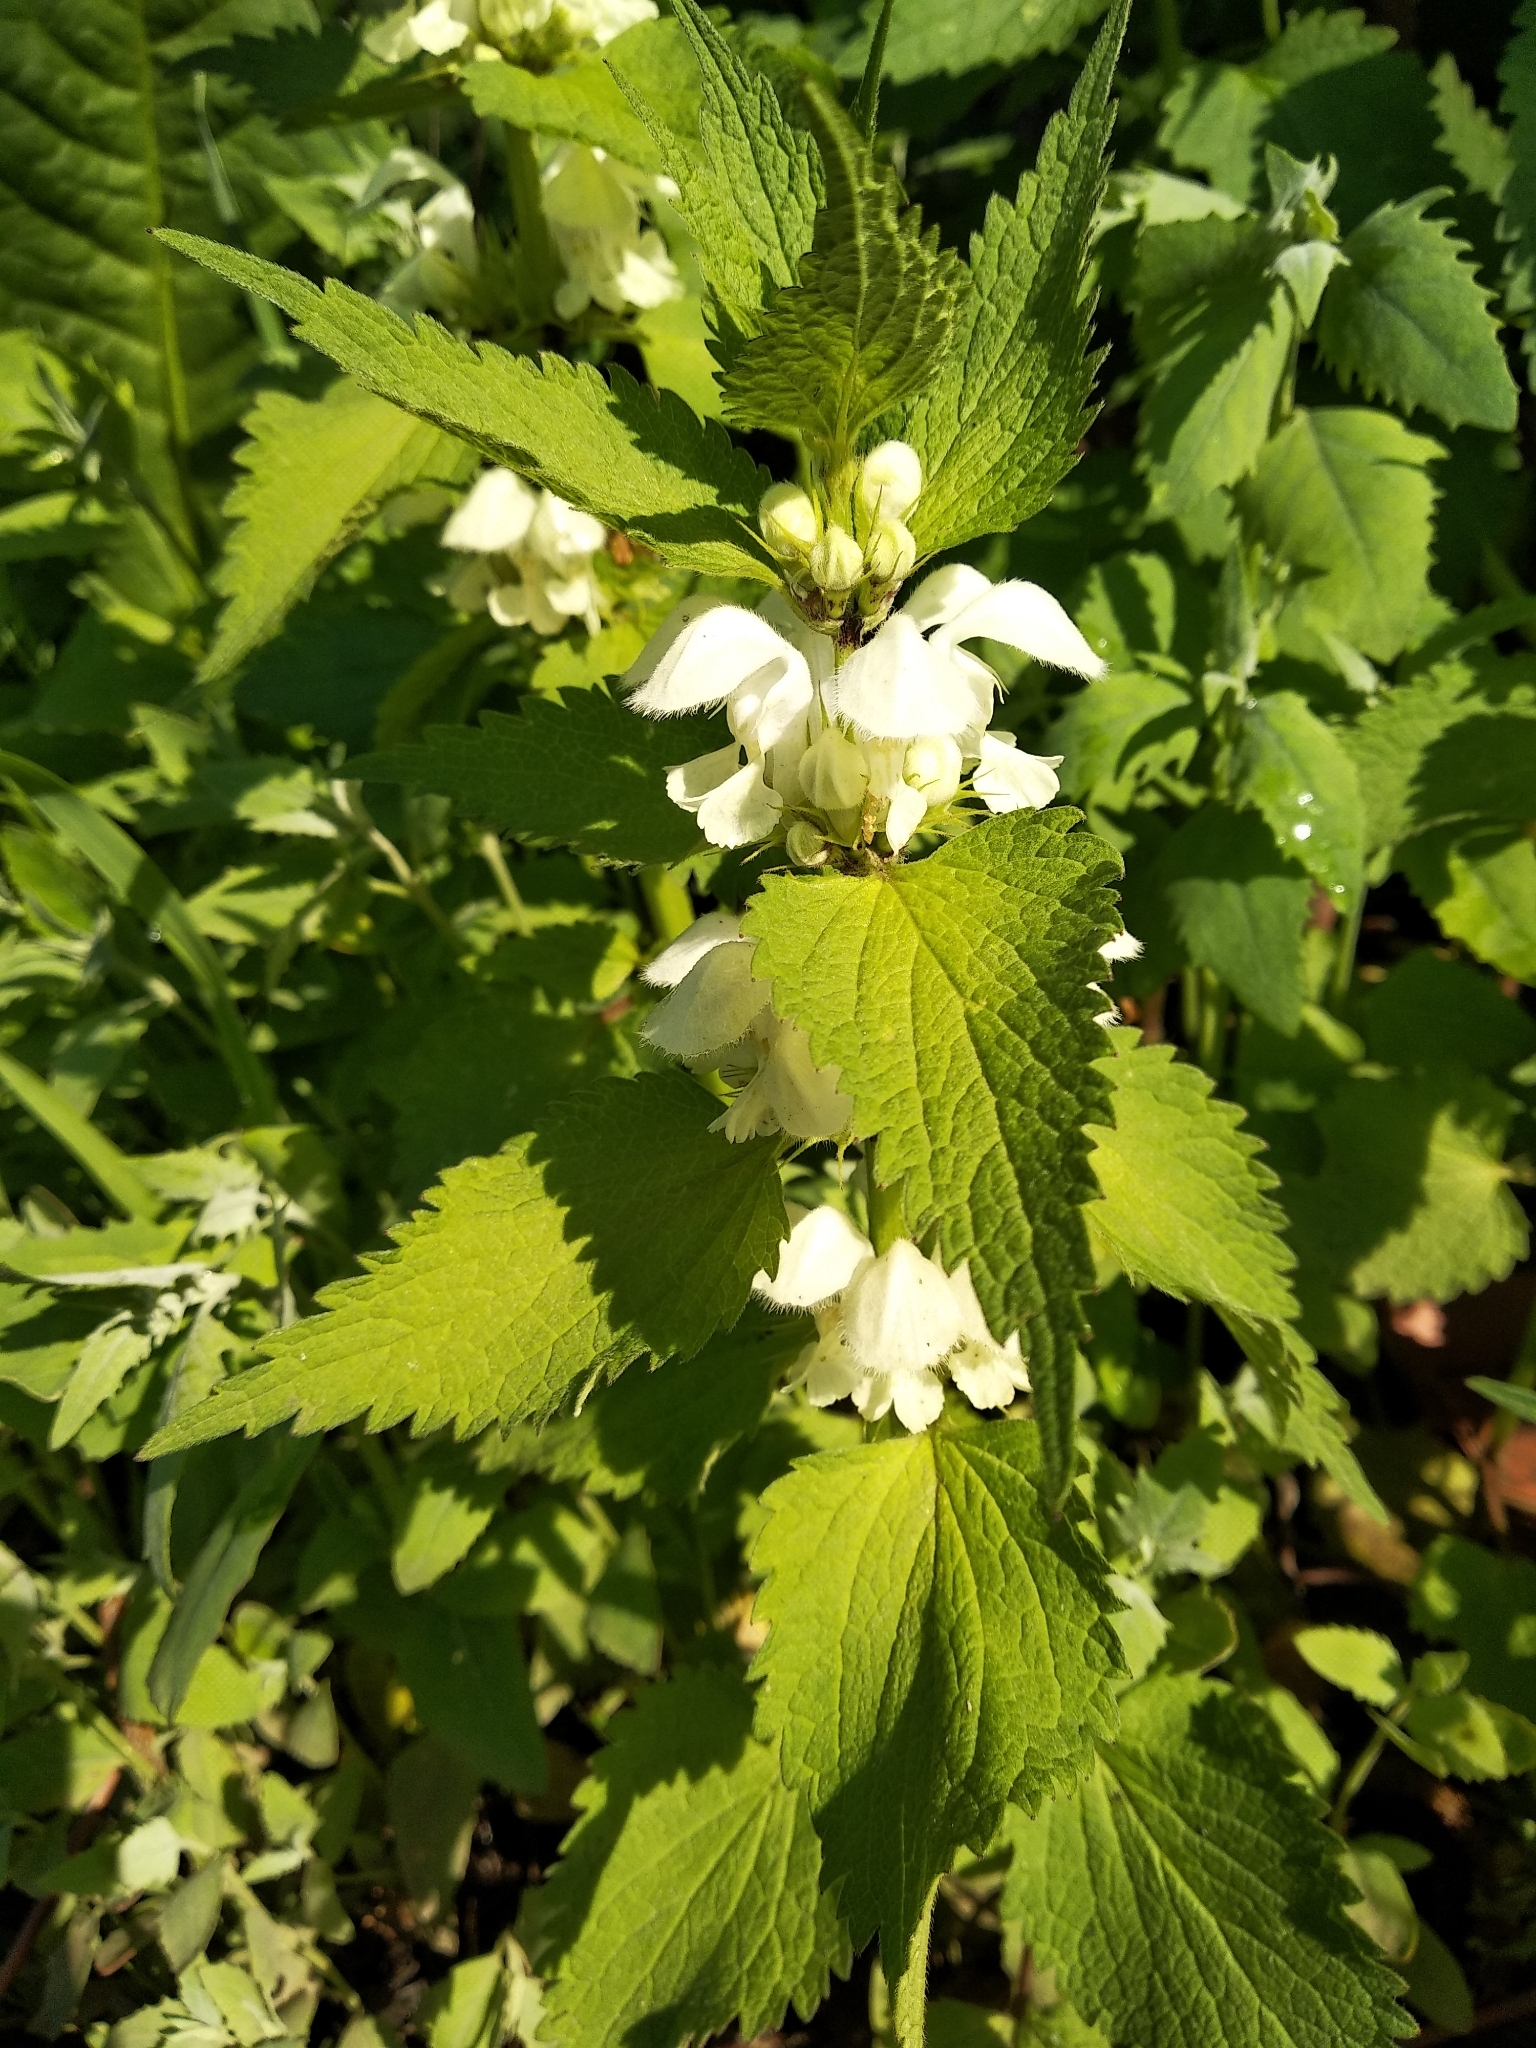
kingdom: Plantae
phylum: Tracheophyta
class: Magnoliopsida
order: Lamiales
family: Lamiaceae
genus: Lamium
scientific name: Lamium album
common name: White dead-nettle
